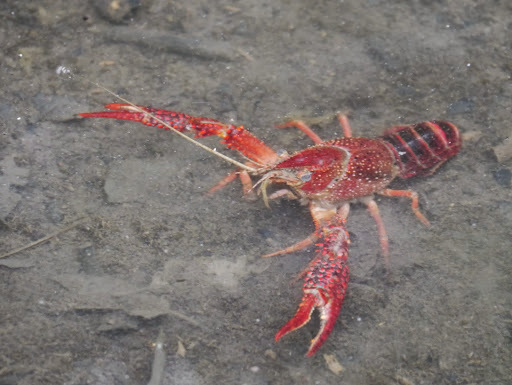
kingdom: Animalia
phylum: Arthropoda
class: Malacostraca
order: Decapoda
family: Cambaridae
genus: Procambarus
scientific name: Procambarus clarkii
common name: Red swamp crayfish
